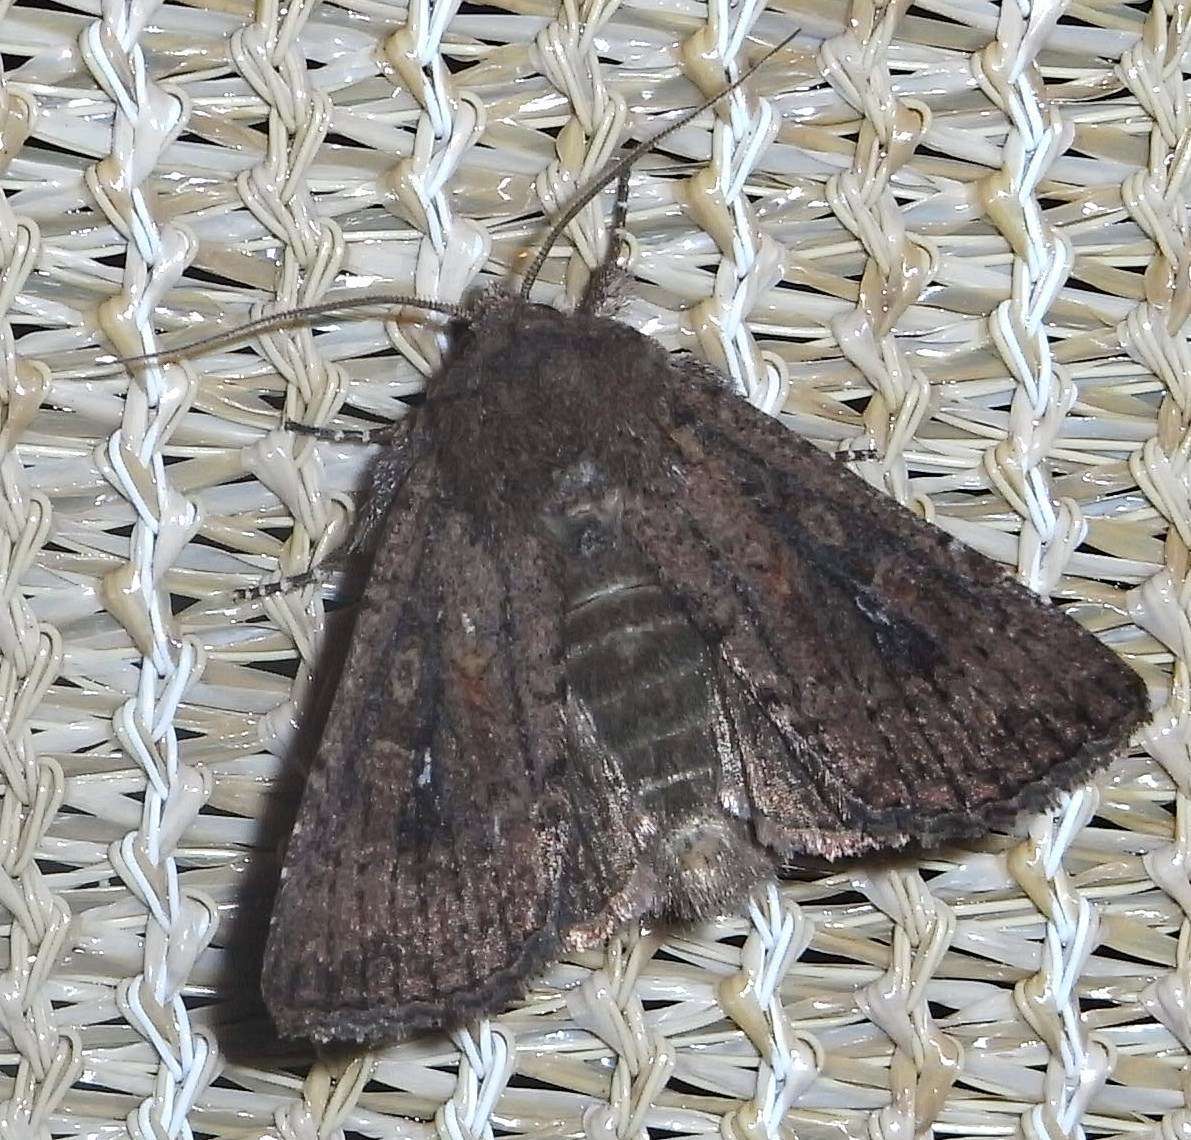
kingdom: Animalia
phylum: Arthropoda
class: Insecta
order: Lepidoptera
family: Noctuidae
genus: Dasygaster
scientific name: Dasygaster padockina
